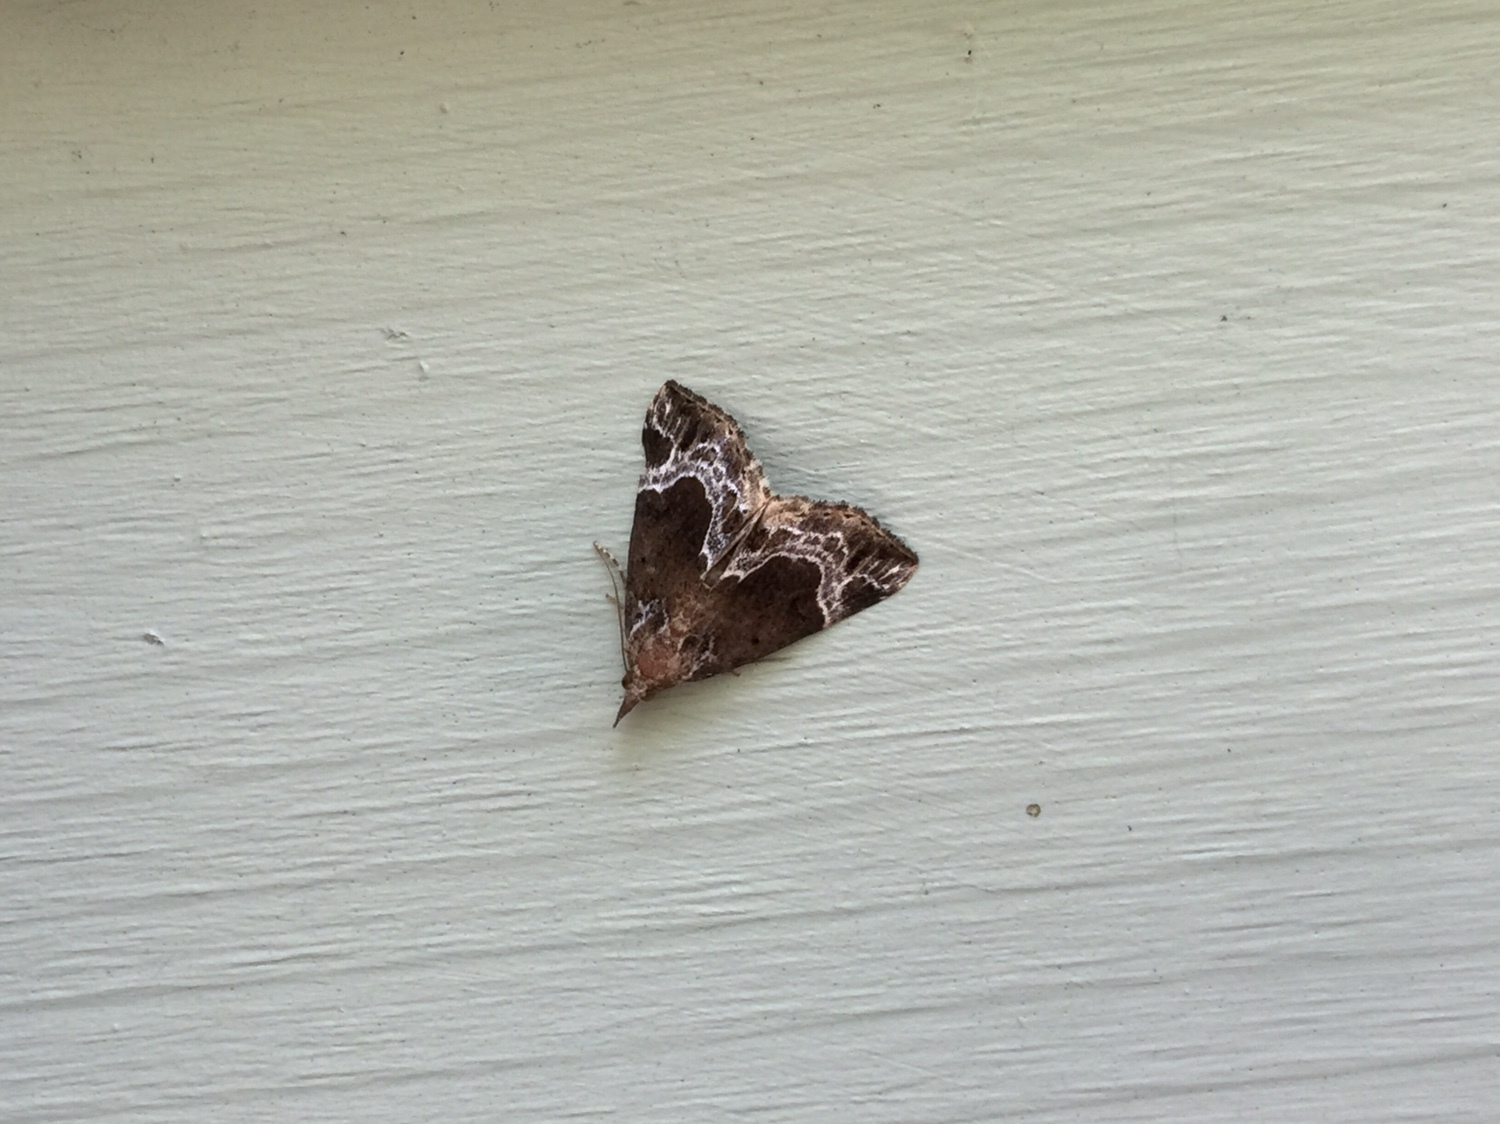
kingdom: Animalia
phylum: Arthropoda
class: Insecta
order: Lepidoptera
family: Erebidae
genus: Hypena
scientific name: Hypena abalienalis
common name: White-lined snout
